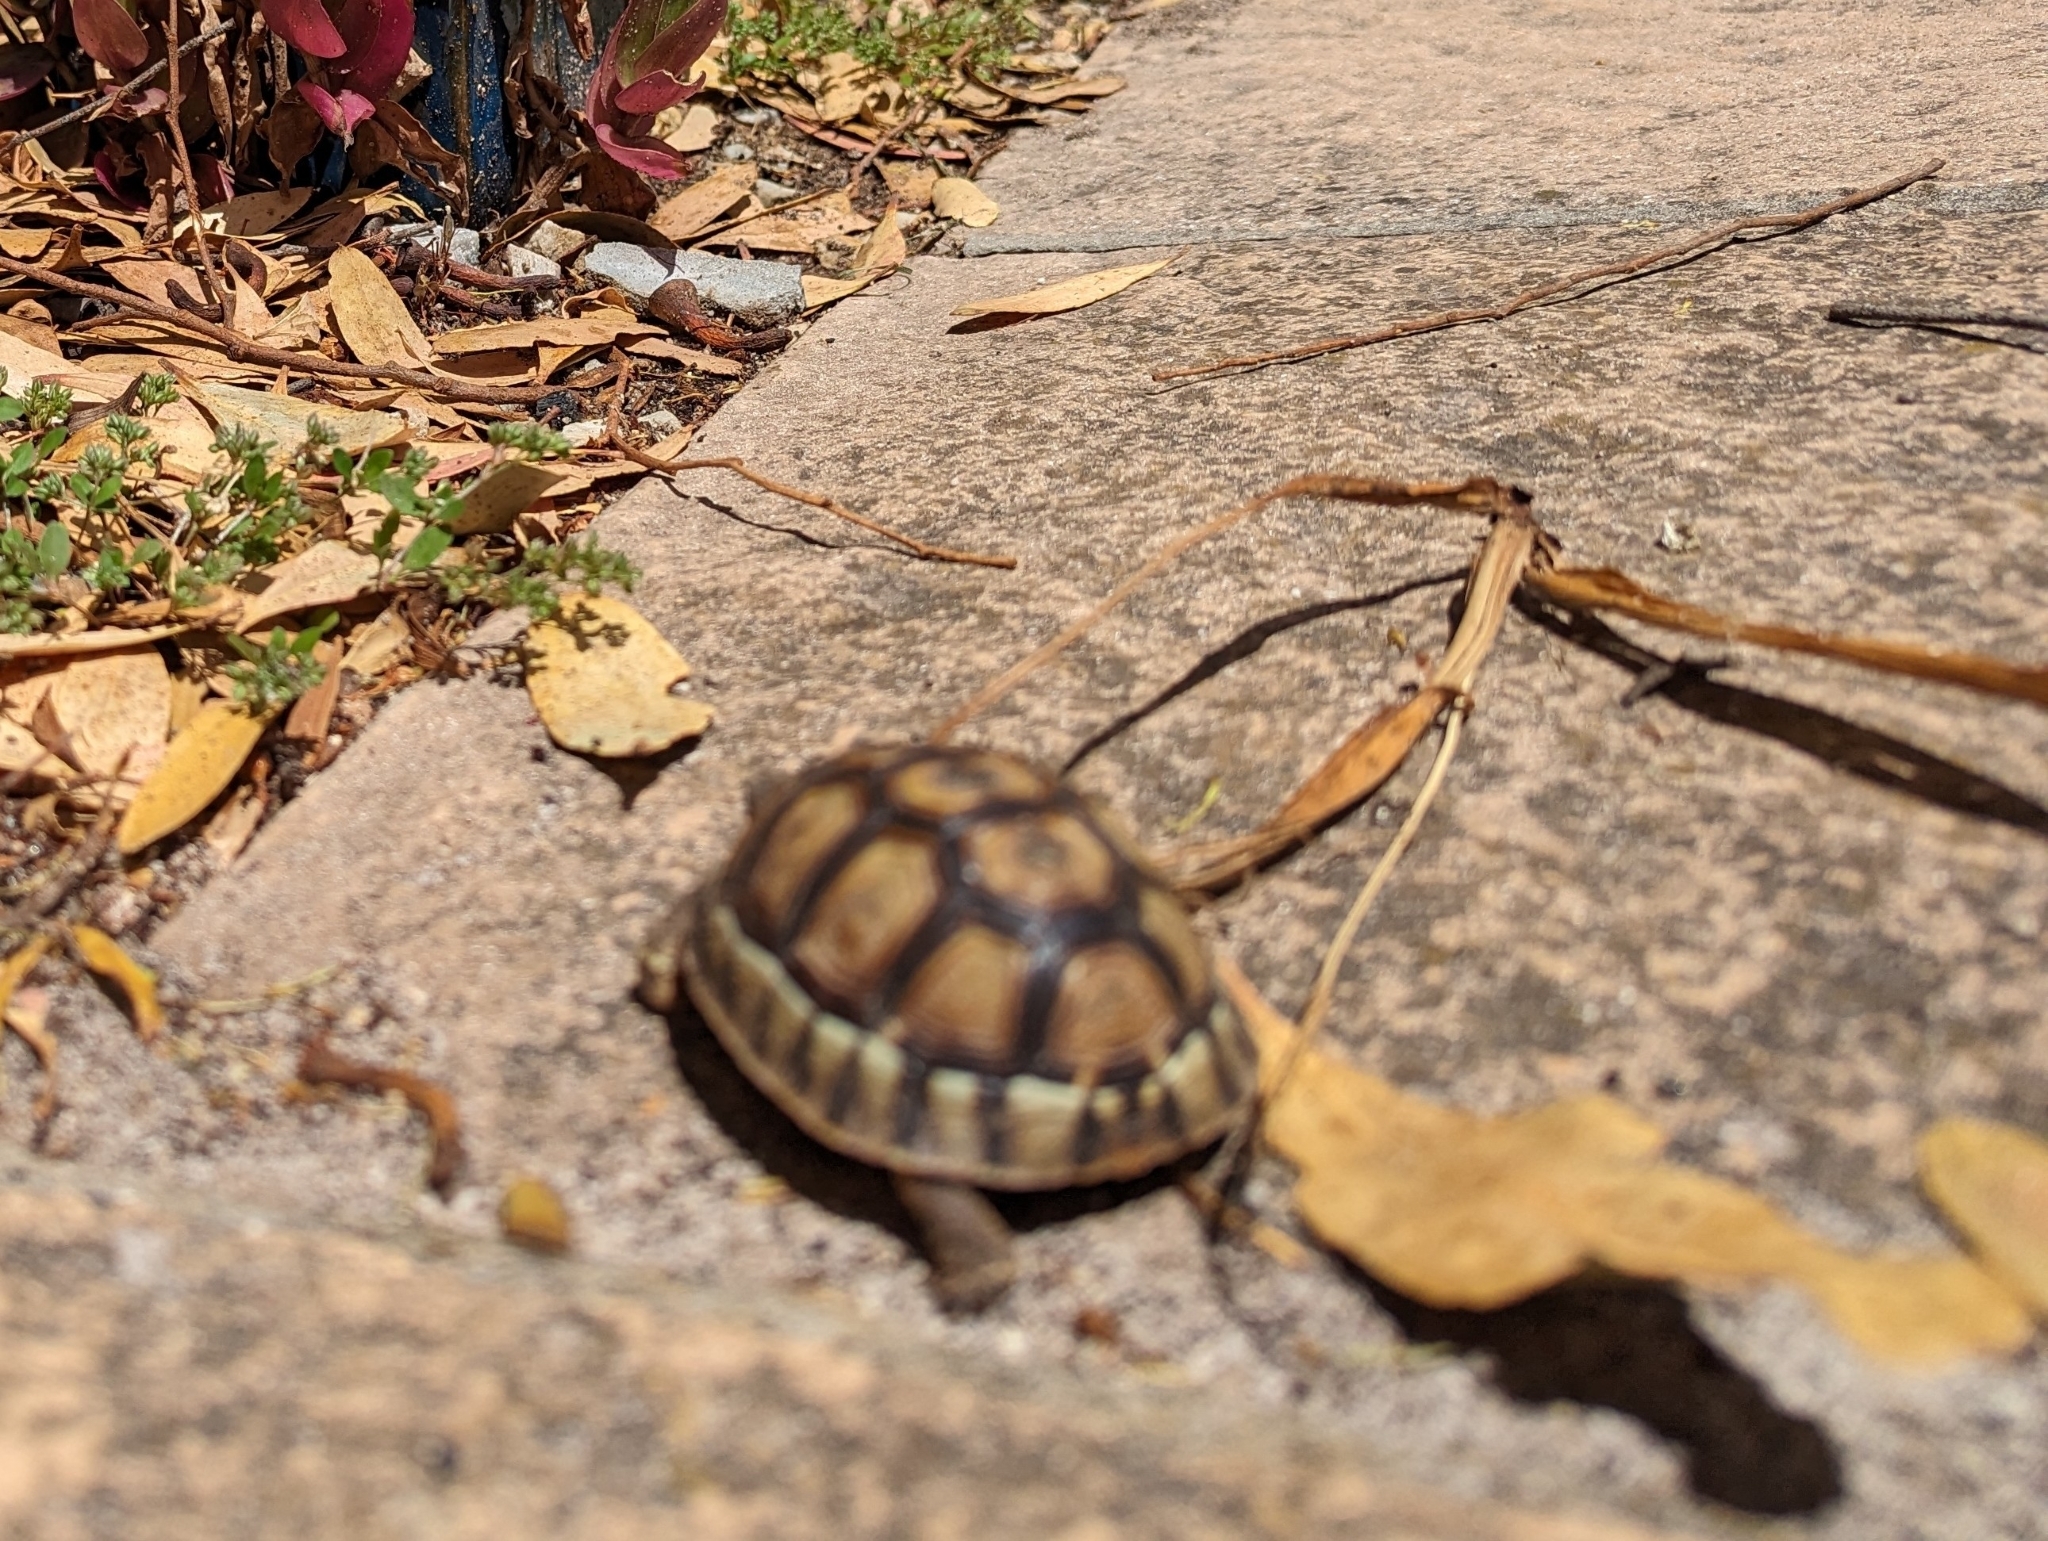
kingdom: Animalia
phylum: Chordata
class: Testudines
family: Testudinidae
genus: Chersina
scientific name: Chersina angulata
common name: South african bowsprit tortoise
